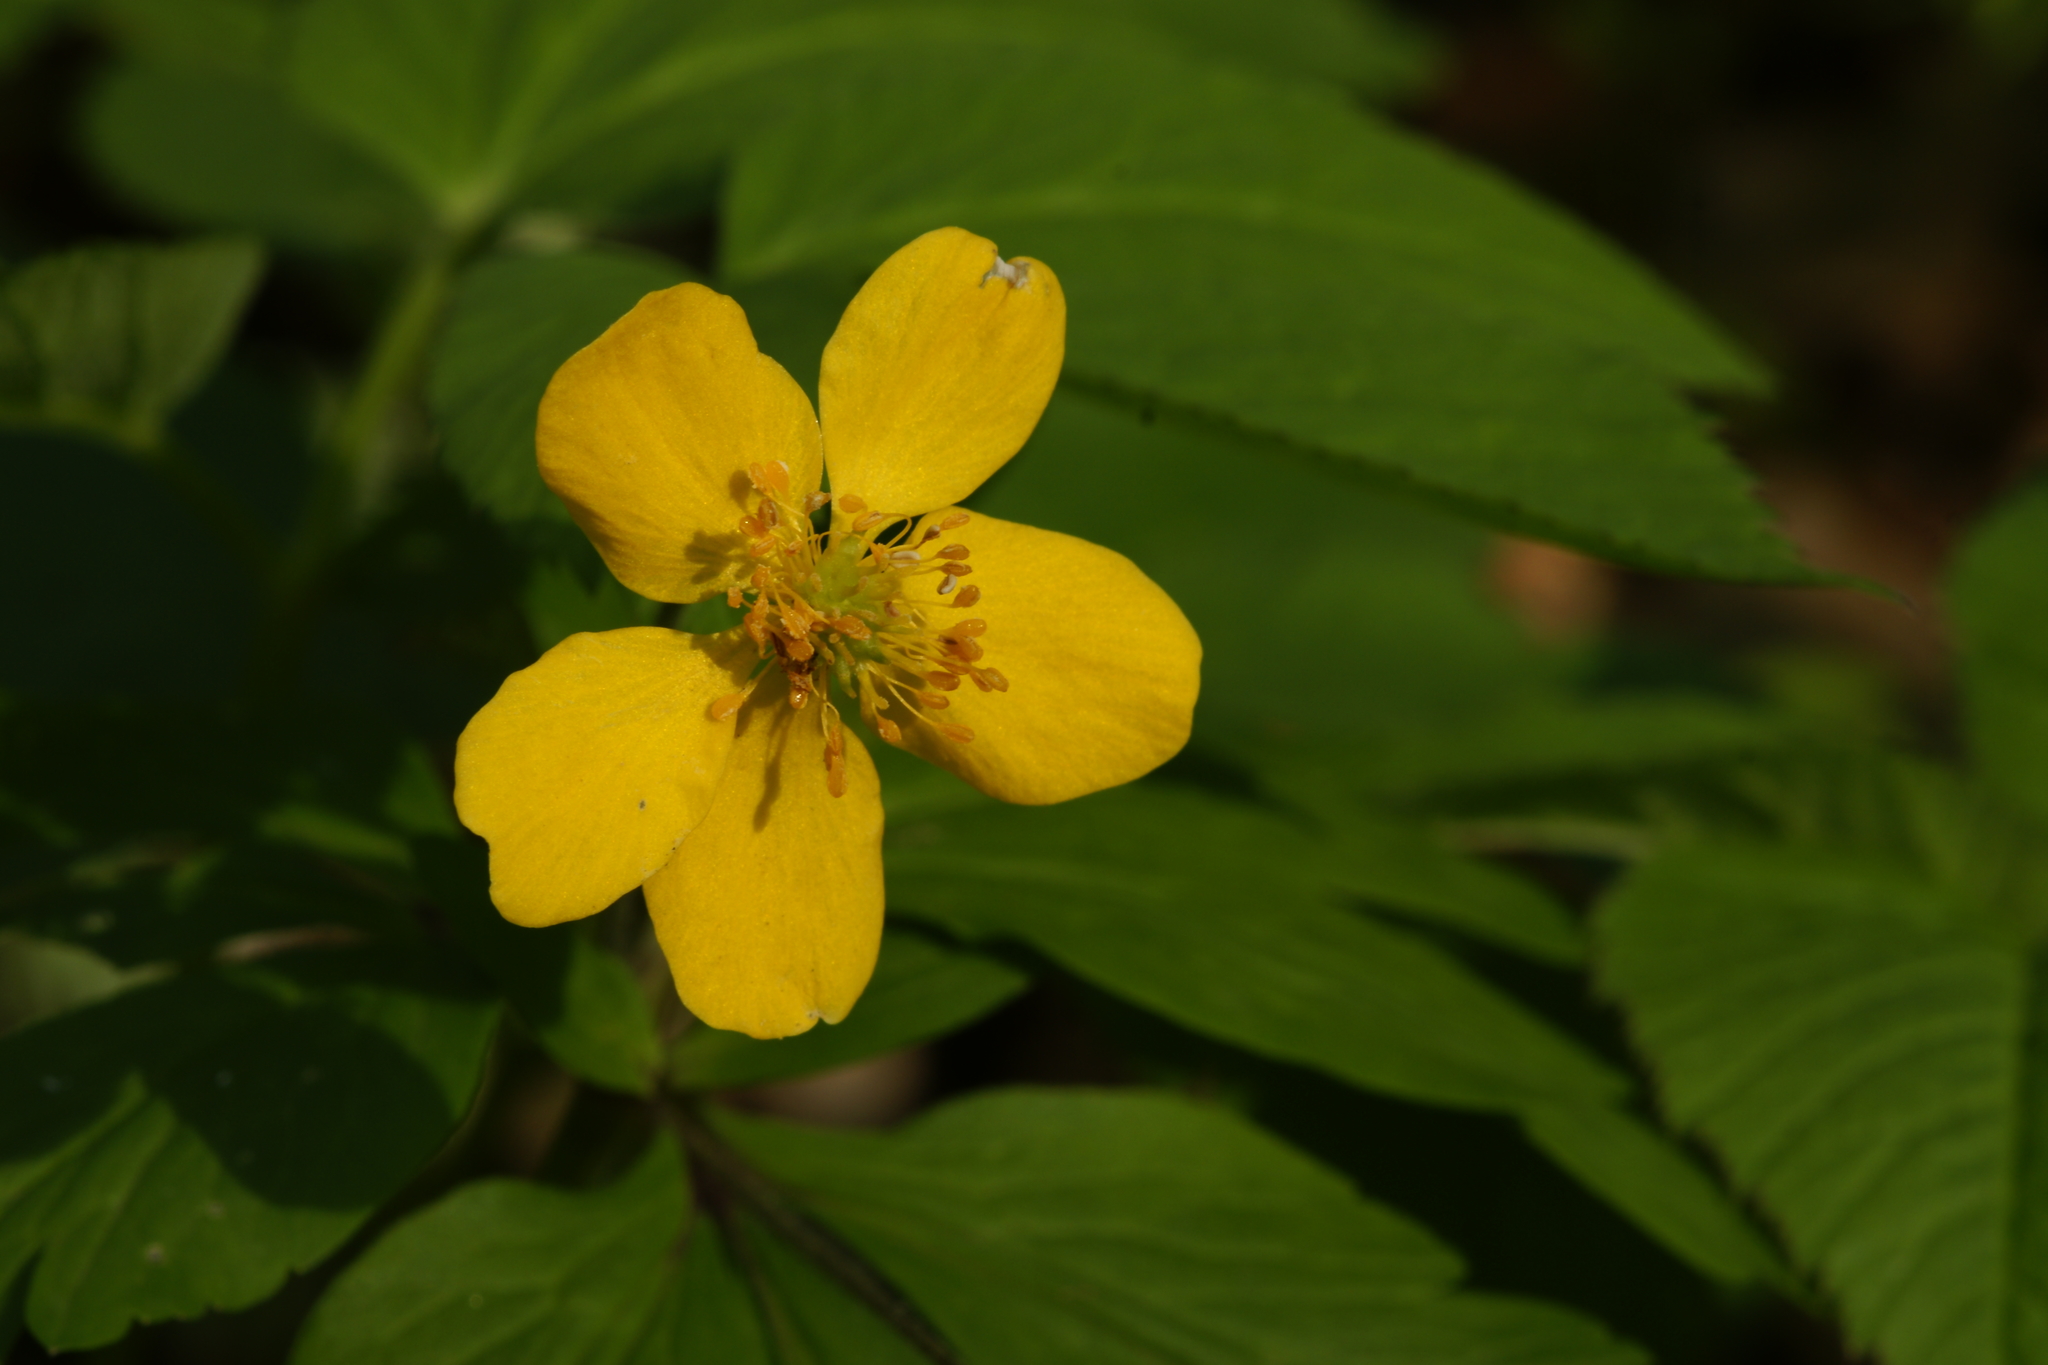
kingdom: Plantae
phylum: Tracheophyta
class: Magnoliopsida
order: Ranunculales
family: Ranunculaceae
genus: Anemone
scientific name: Anemone ranunculoides
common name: Yellow anemone
